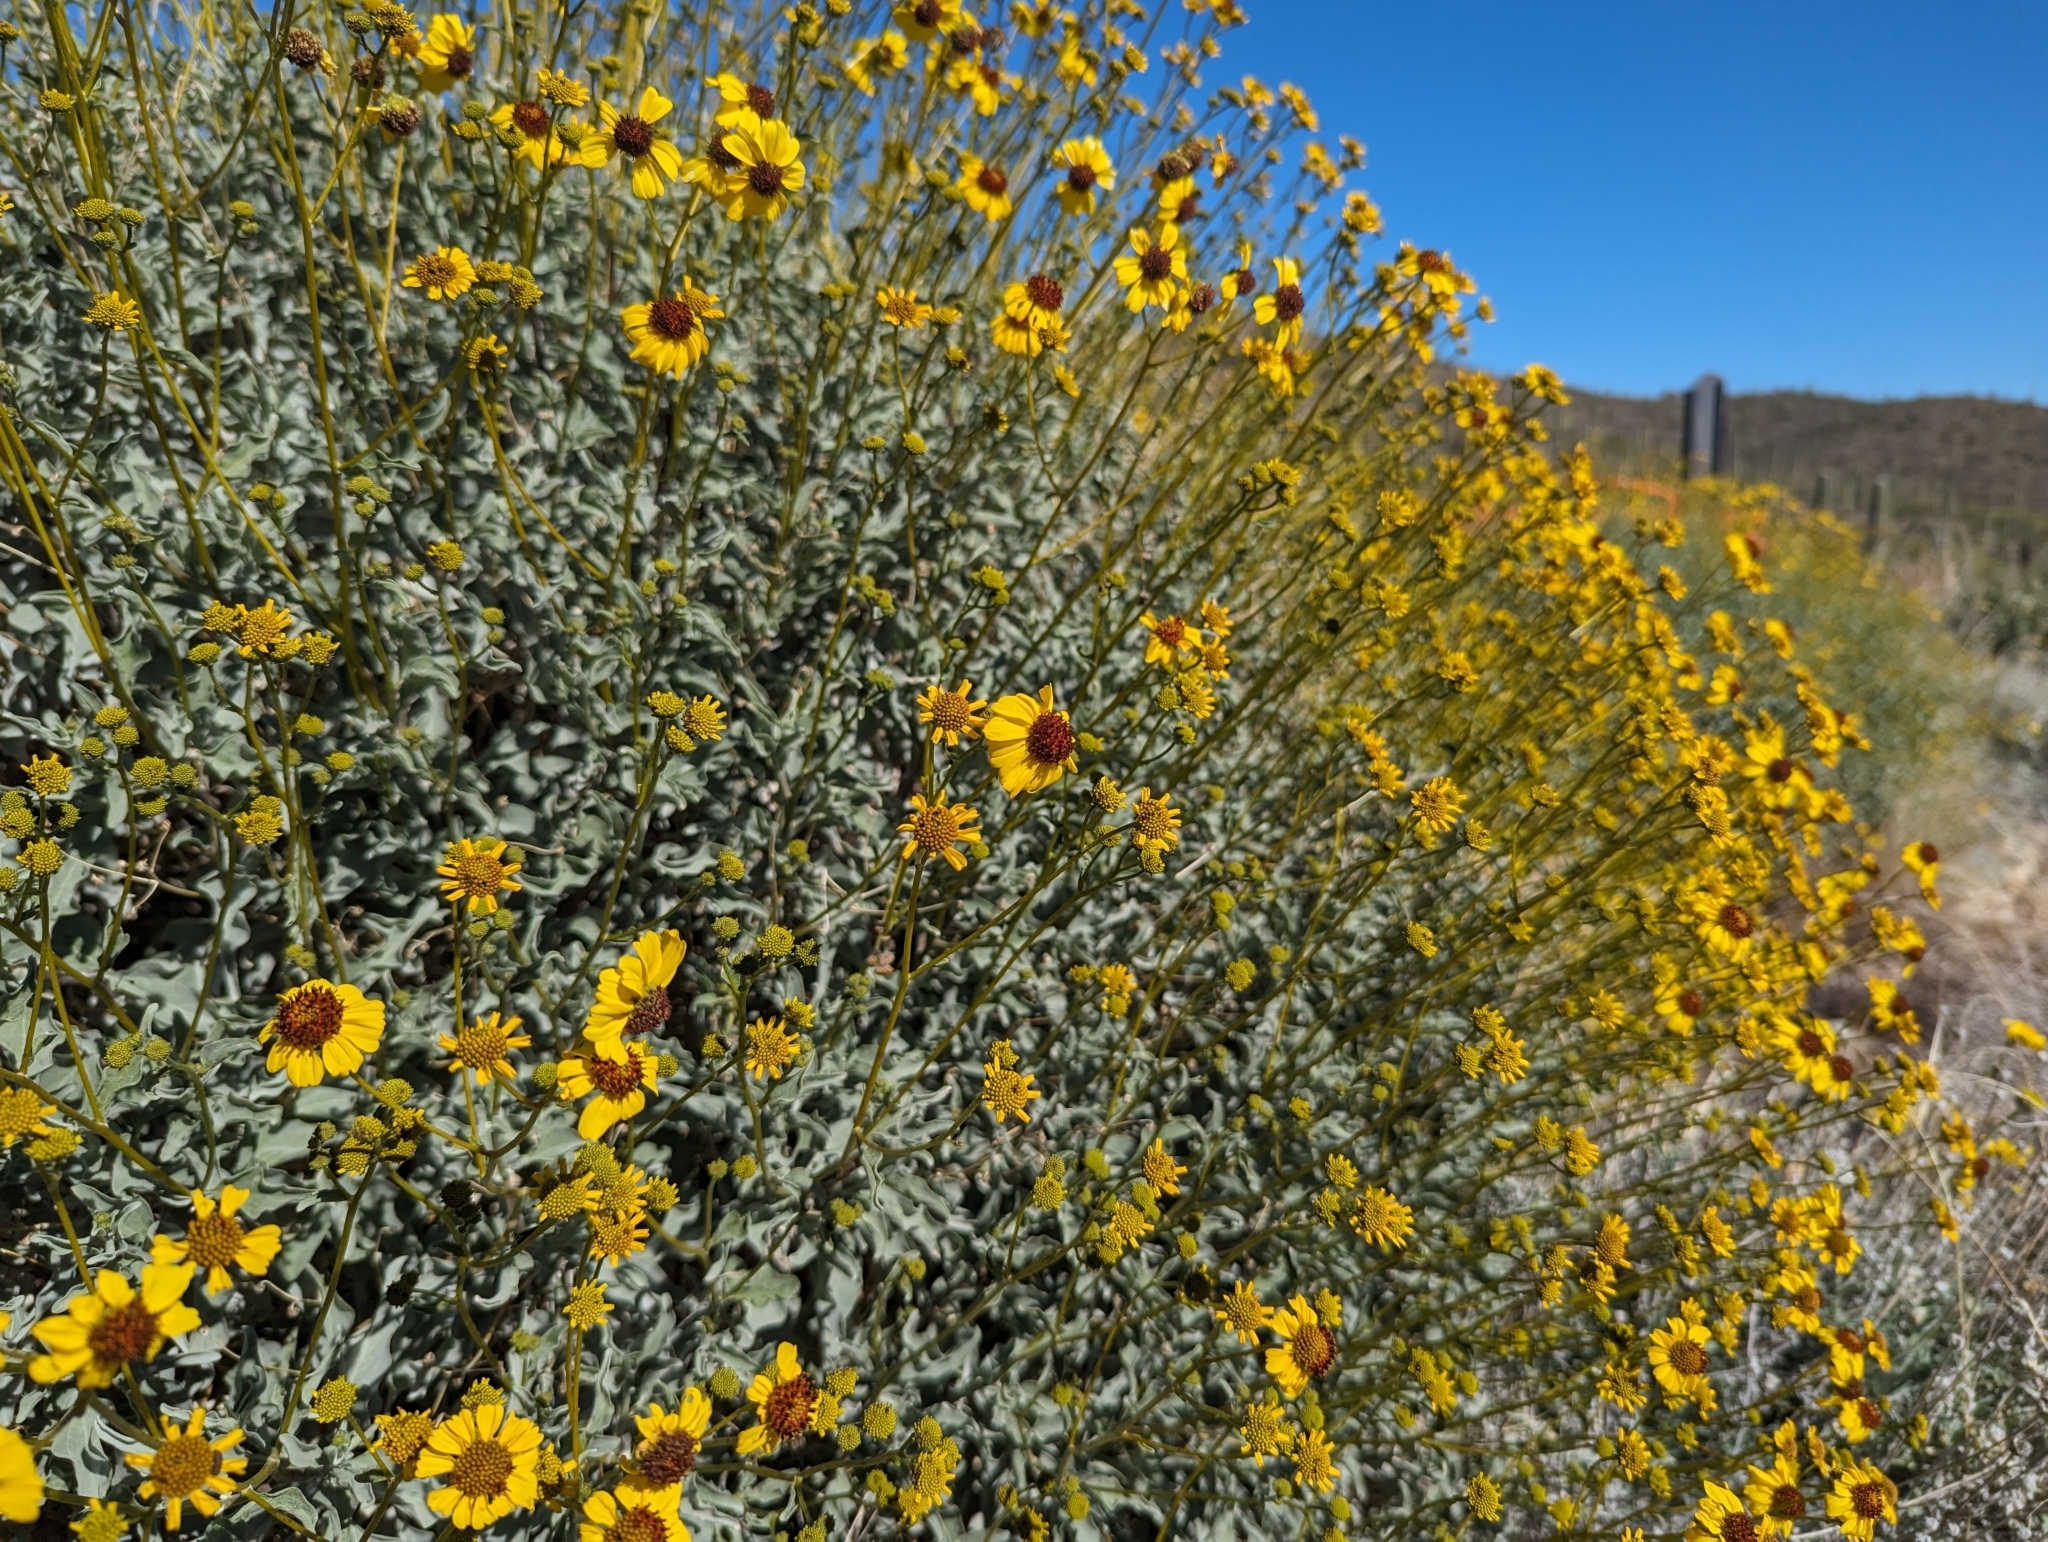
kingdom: Plantae
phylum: Tracheophyta
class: Magnoliopsida
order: Asterales
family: Asteraceae
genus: Encelia
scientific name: Encelia farinosa
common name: Brittlebush
